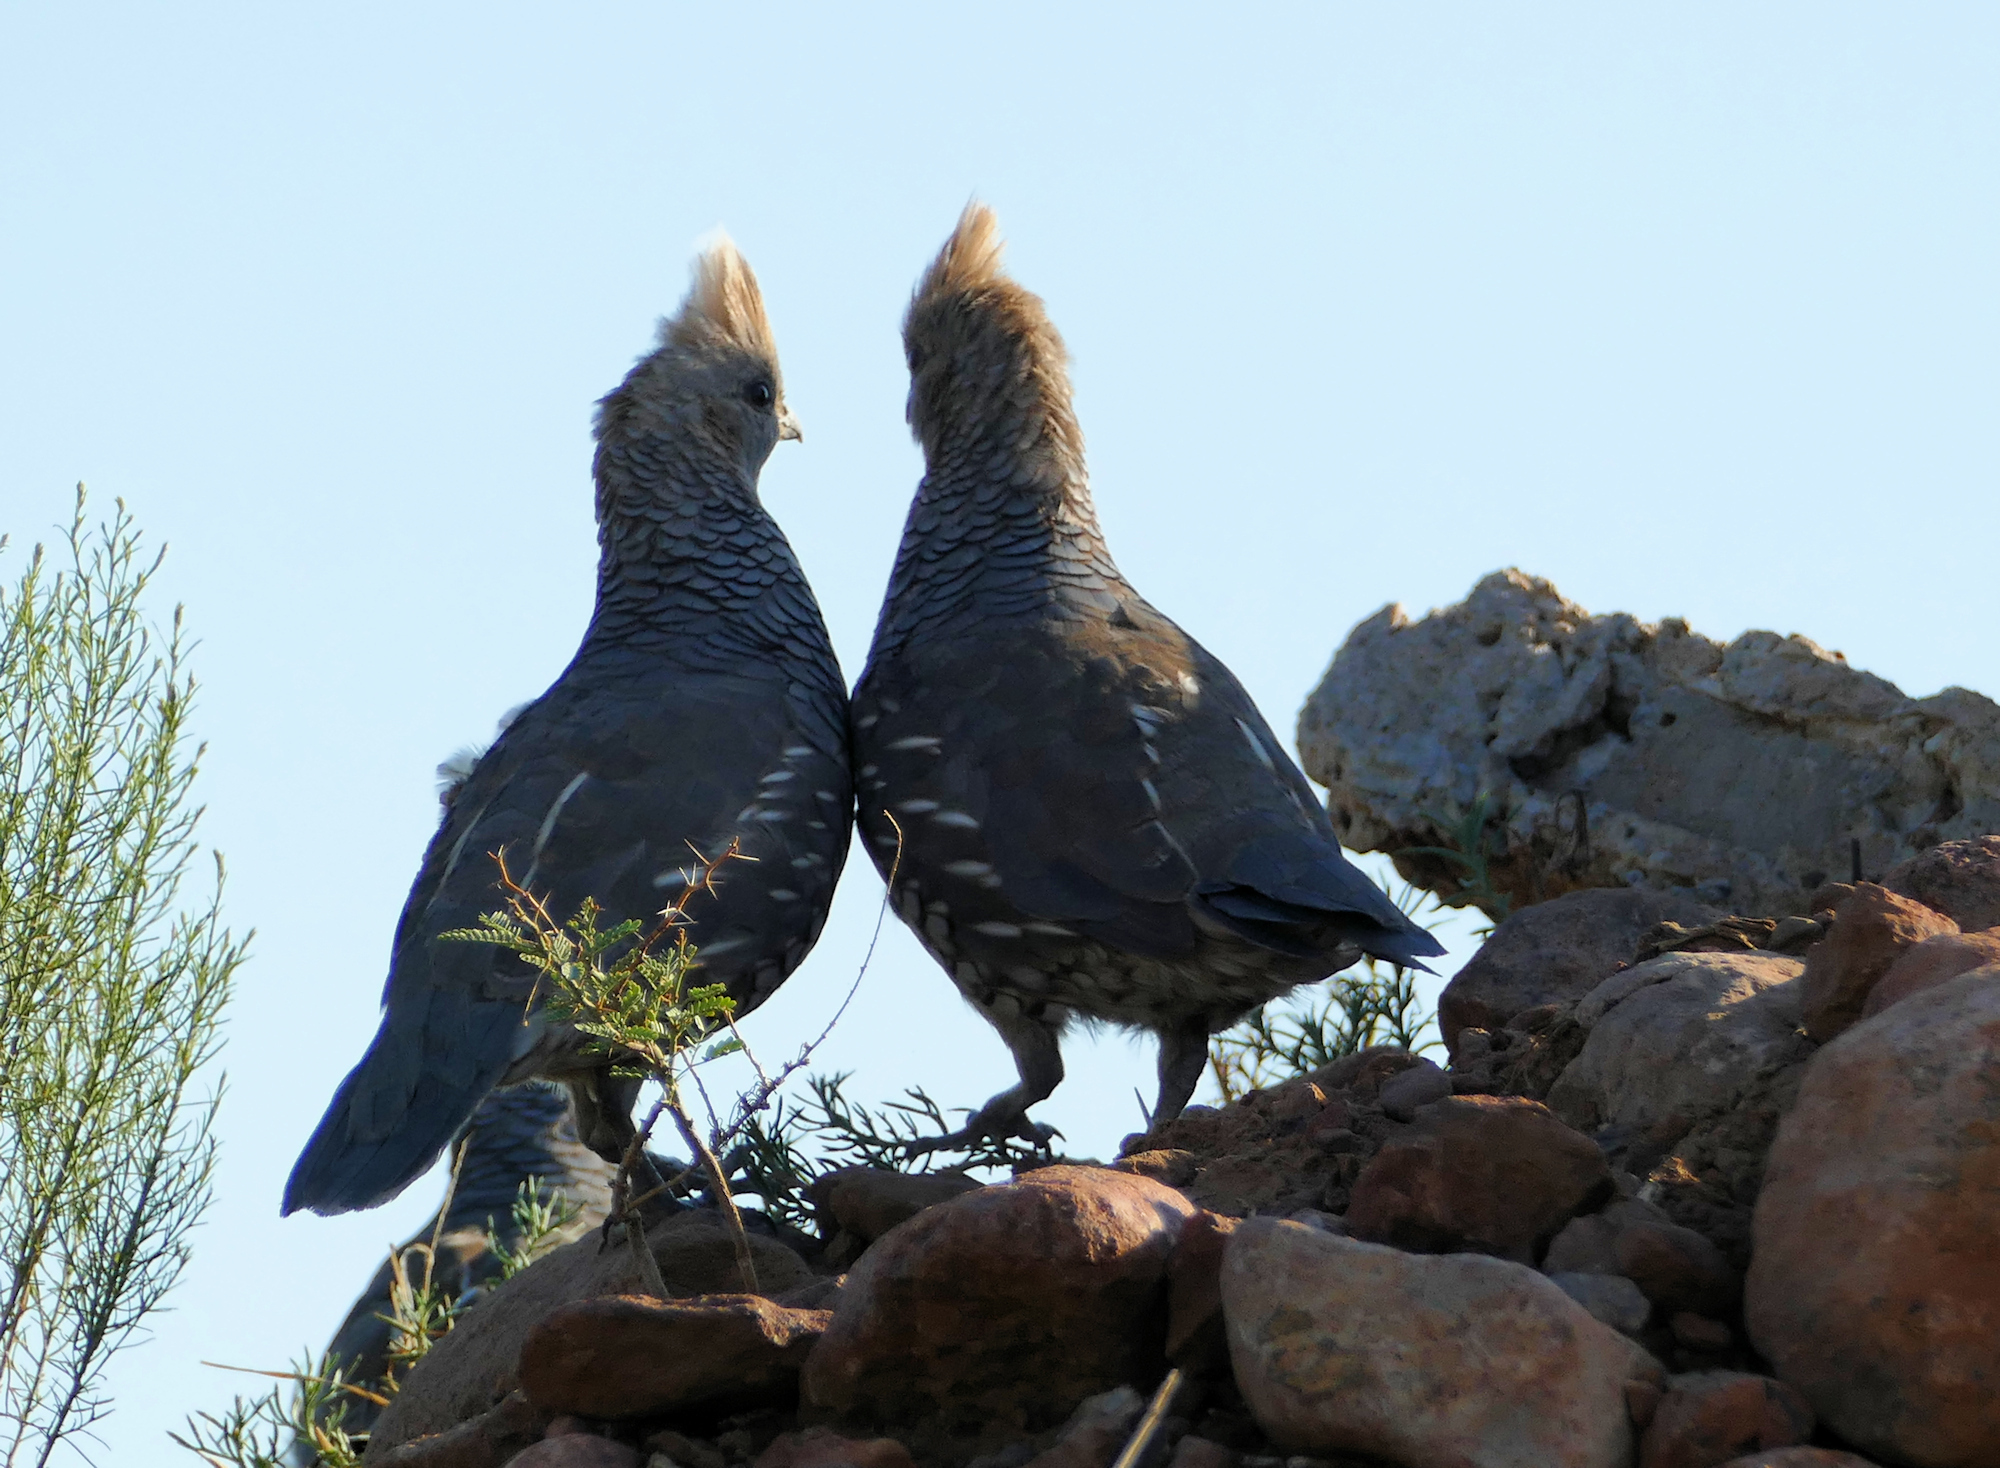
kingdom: Animalia
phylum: Chordata
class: Aves
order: Galliformes
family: Odontophoridae
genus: Callipepla
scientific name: Callipepla squamata
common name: Scaled quail
